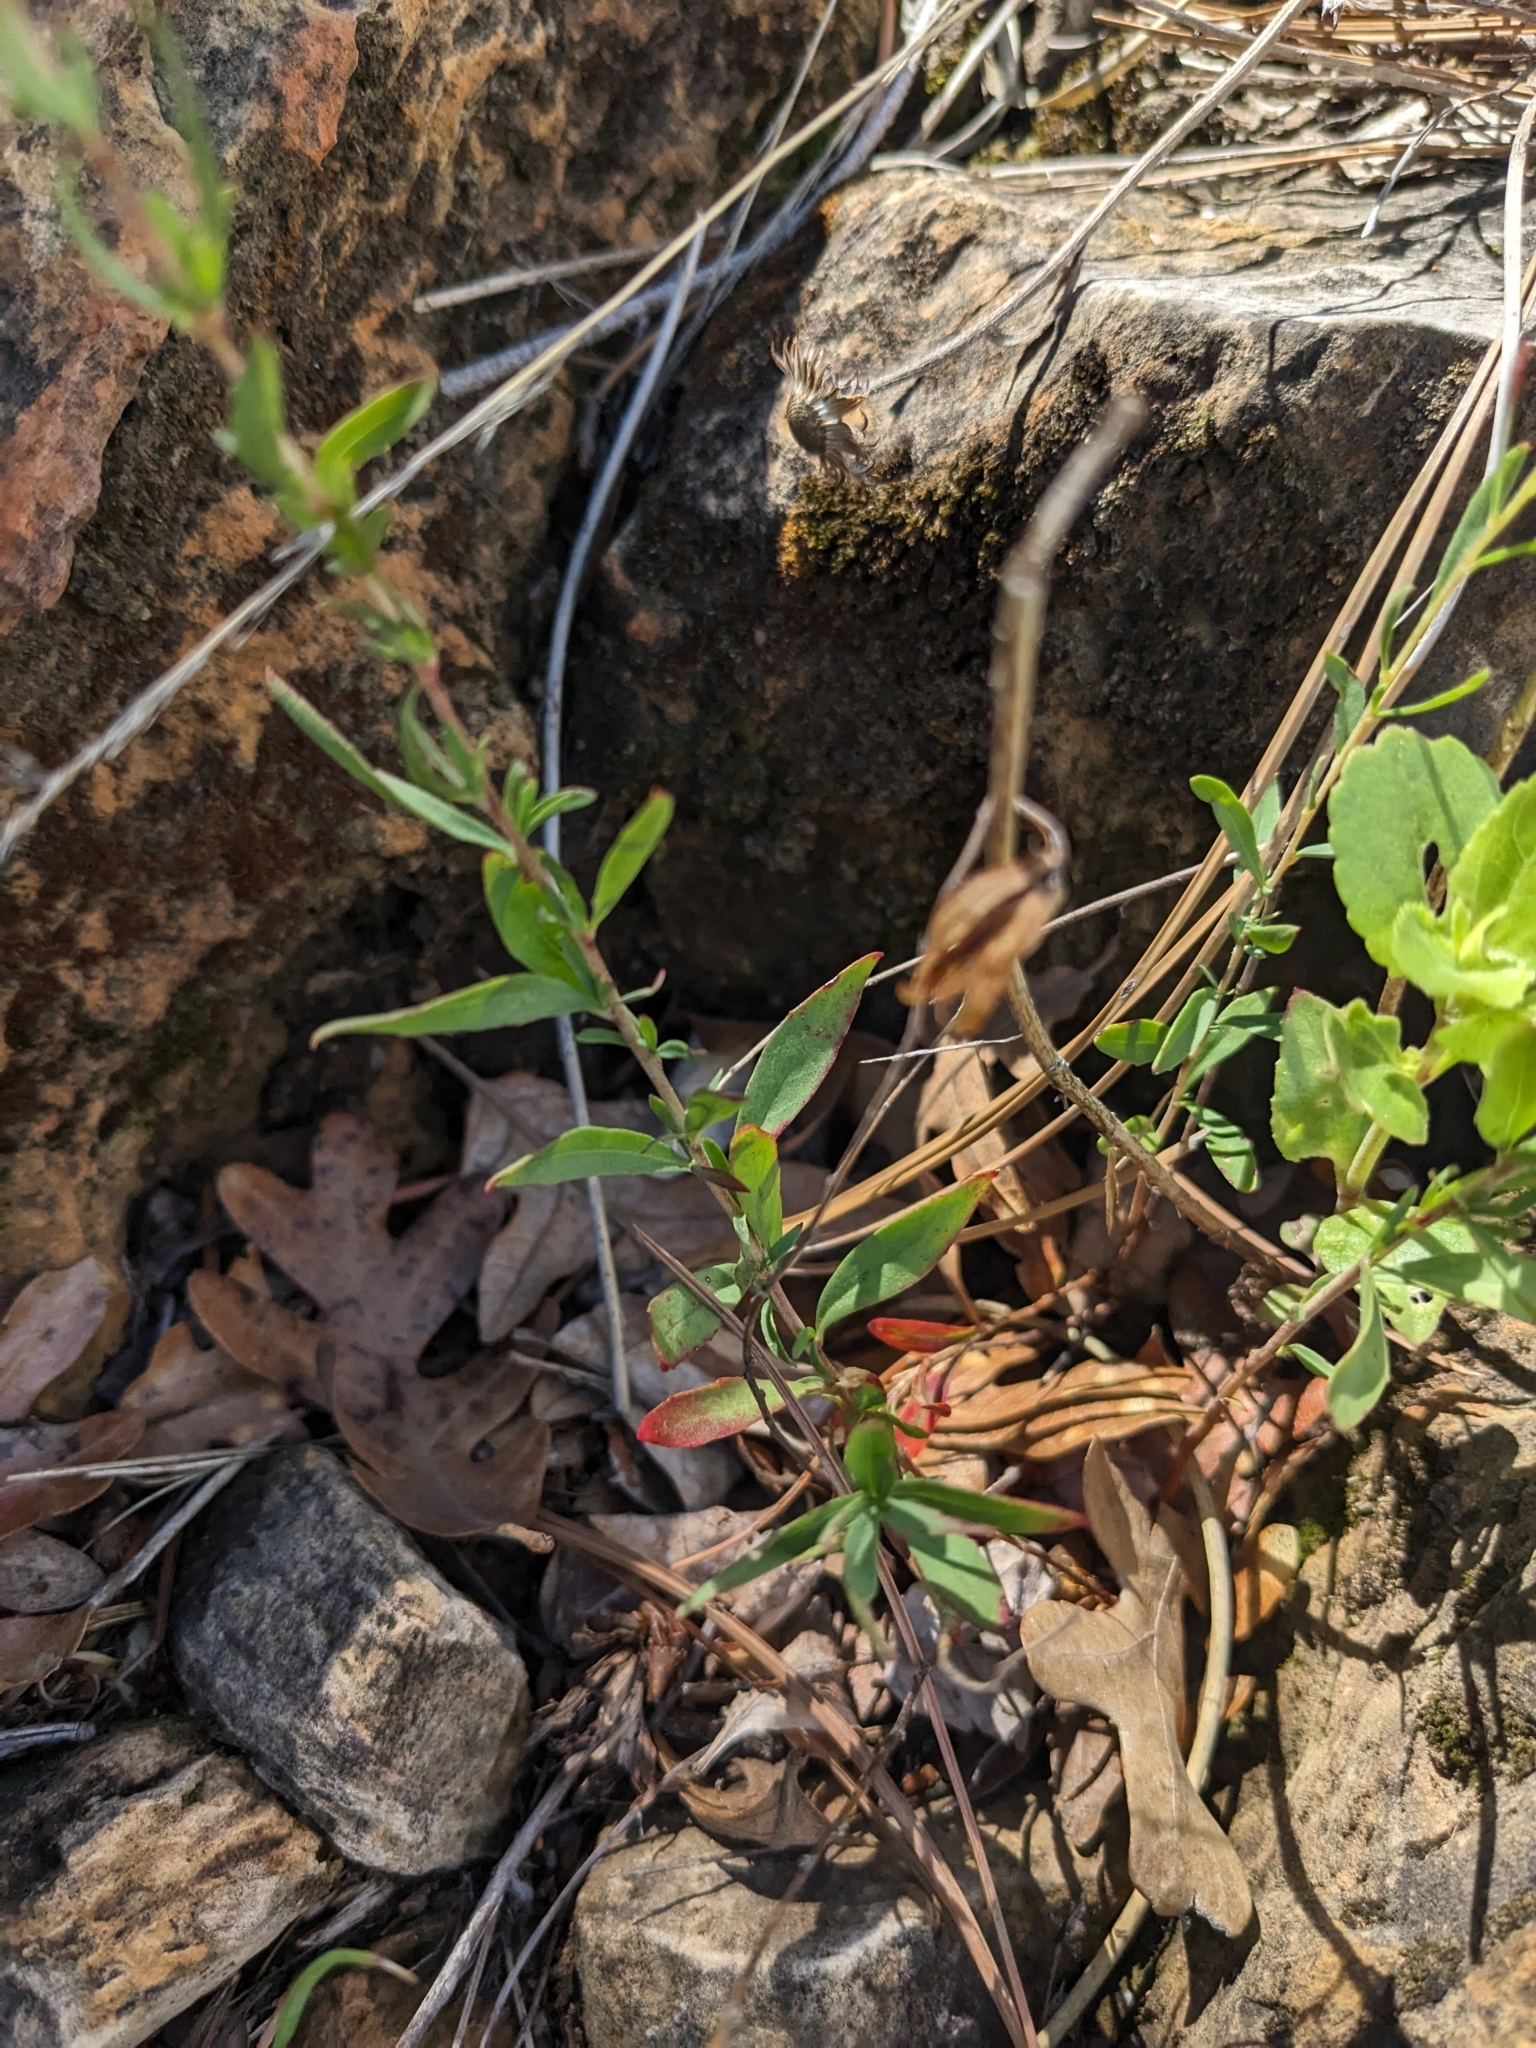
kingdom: Plantae
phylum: Tracheophyta
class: Magnoliopsida
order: Myrtales
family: Onagraceae
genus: Oenothera
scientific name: Oenothera toumeyi
